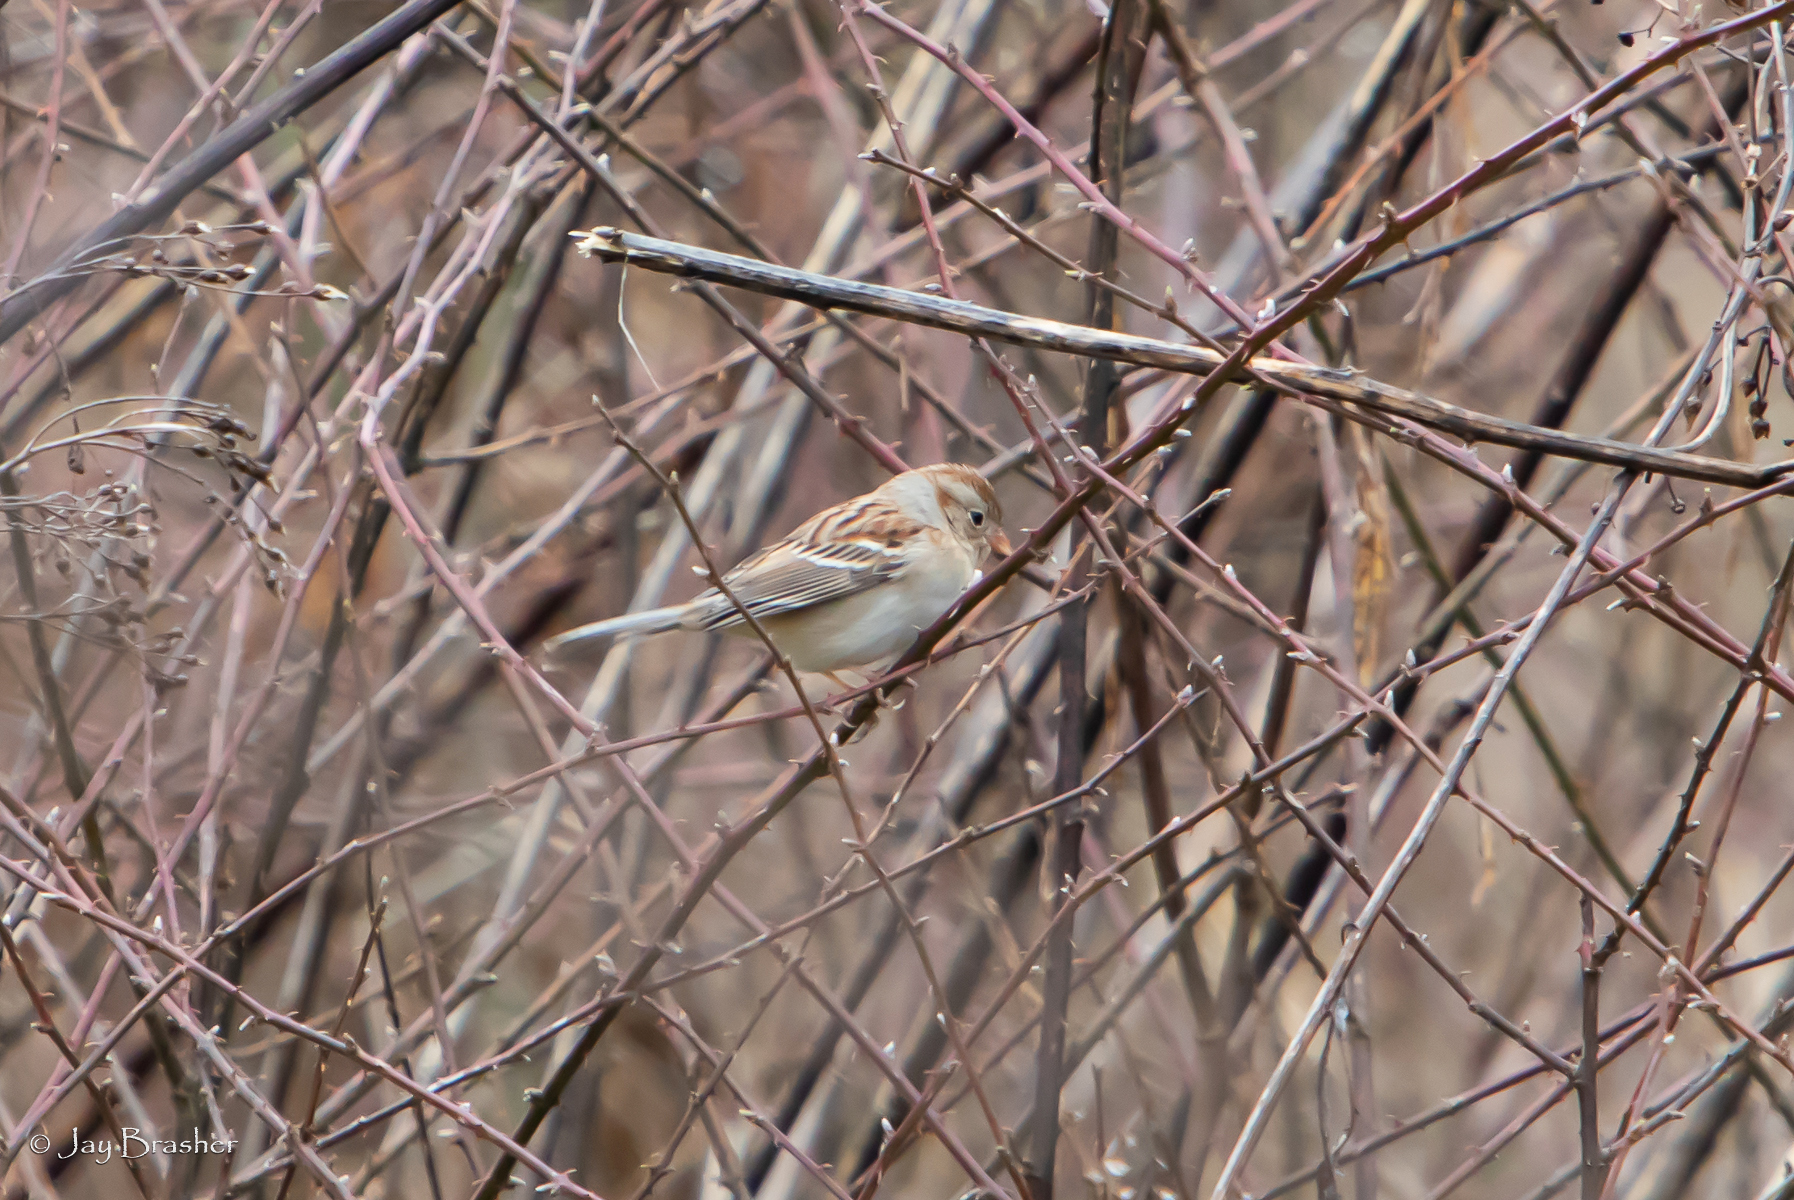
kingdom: Animalia
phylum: Chordata
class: Aves
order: Passeriformes
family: Passerellidae
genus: Spizella
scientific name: Spizella pusilla
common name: Field sparrow
